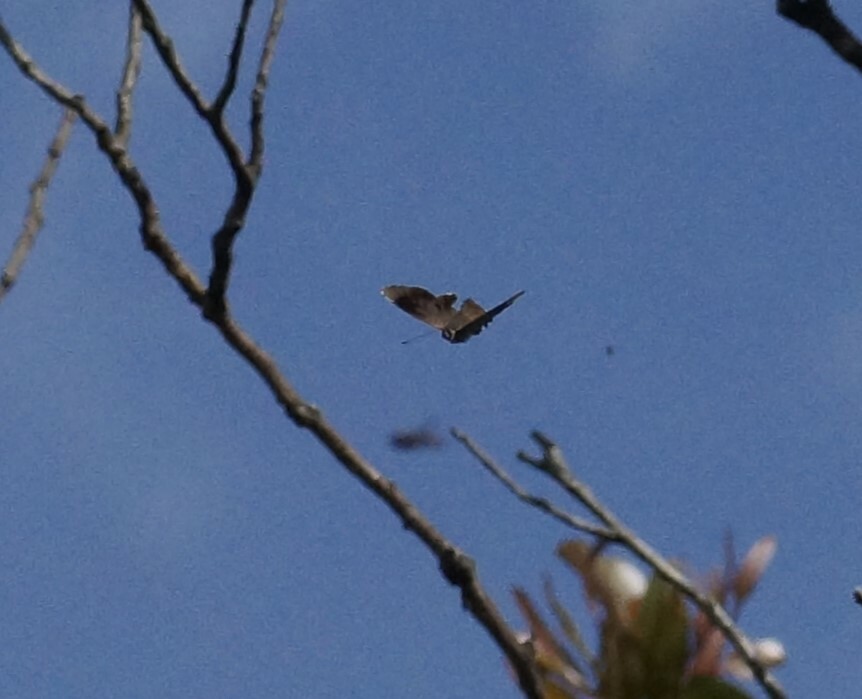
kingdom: Animalia
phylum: Arthropoda
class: Insecta
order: Lepidoptera
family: Lycaenidae
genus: Ogyris
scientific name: Ogyris olane
